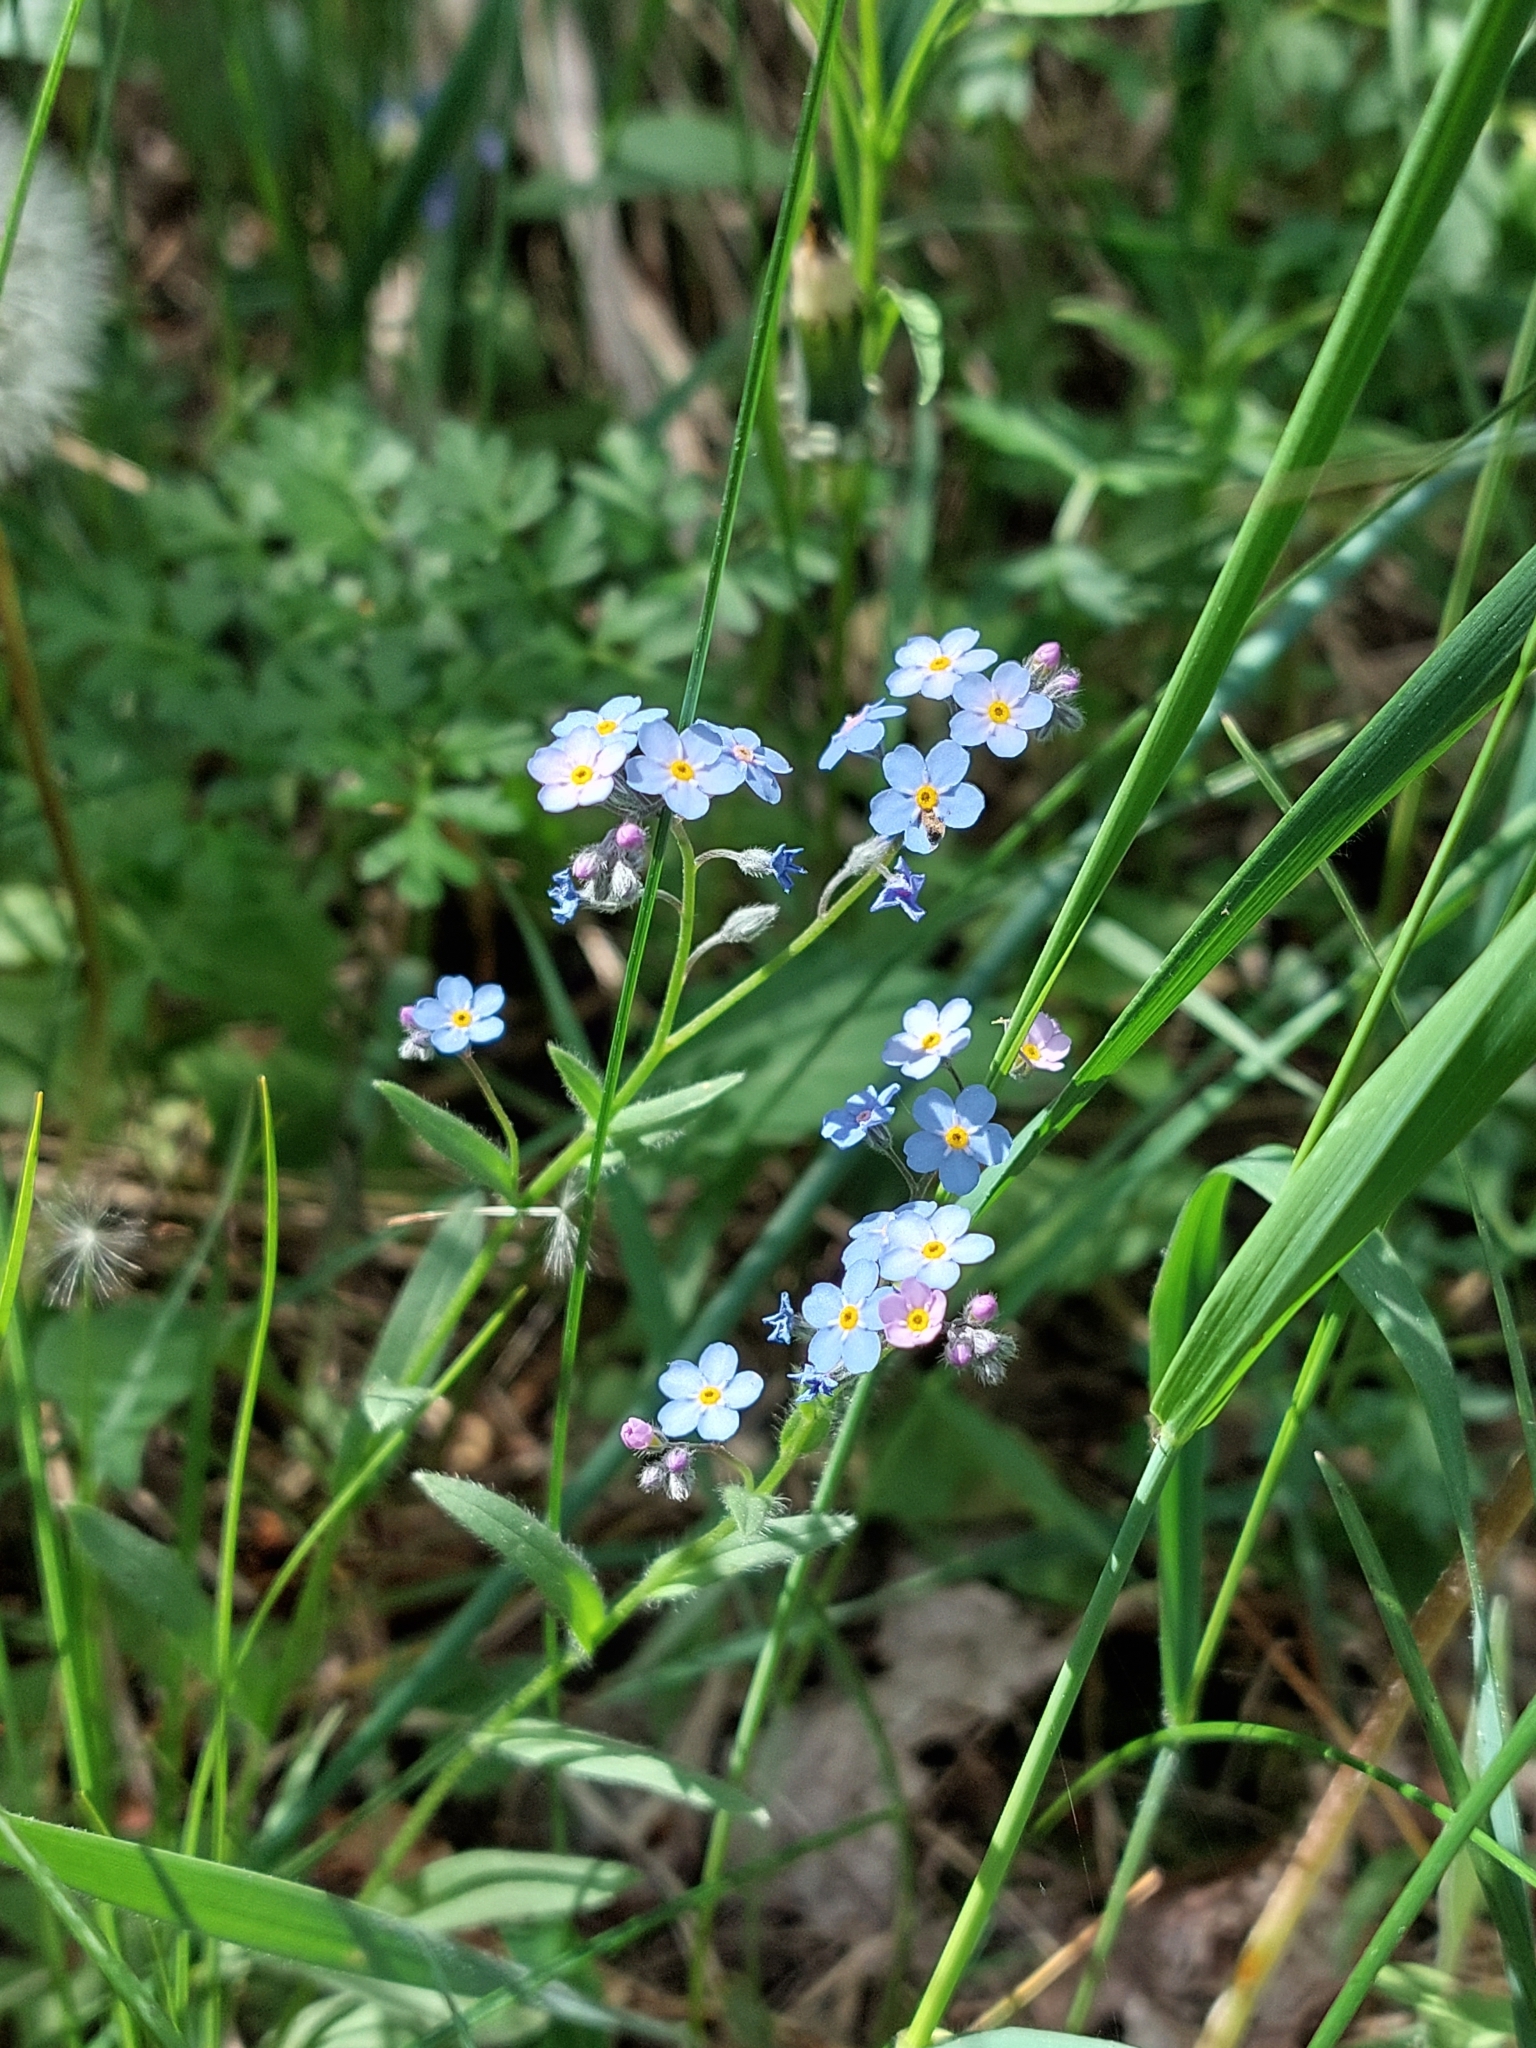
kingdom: Plantae
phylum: Tracheophyta
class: Magnoliopsida
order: Boraginales
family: Boraginaceae
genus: Myosotis
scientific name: Myosotis popovii
